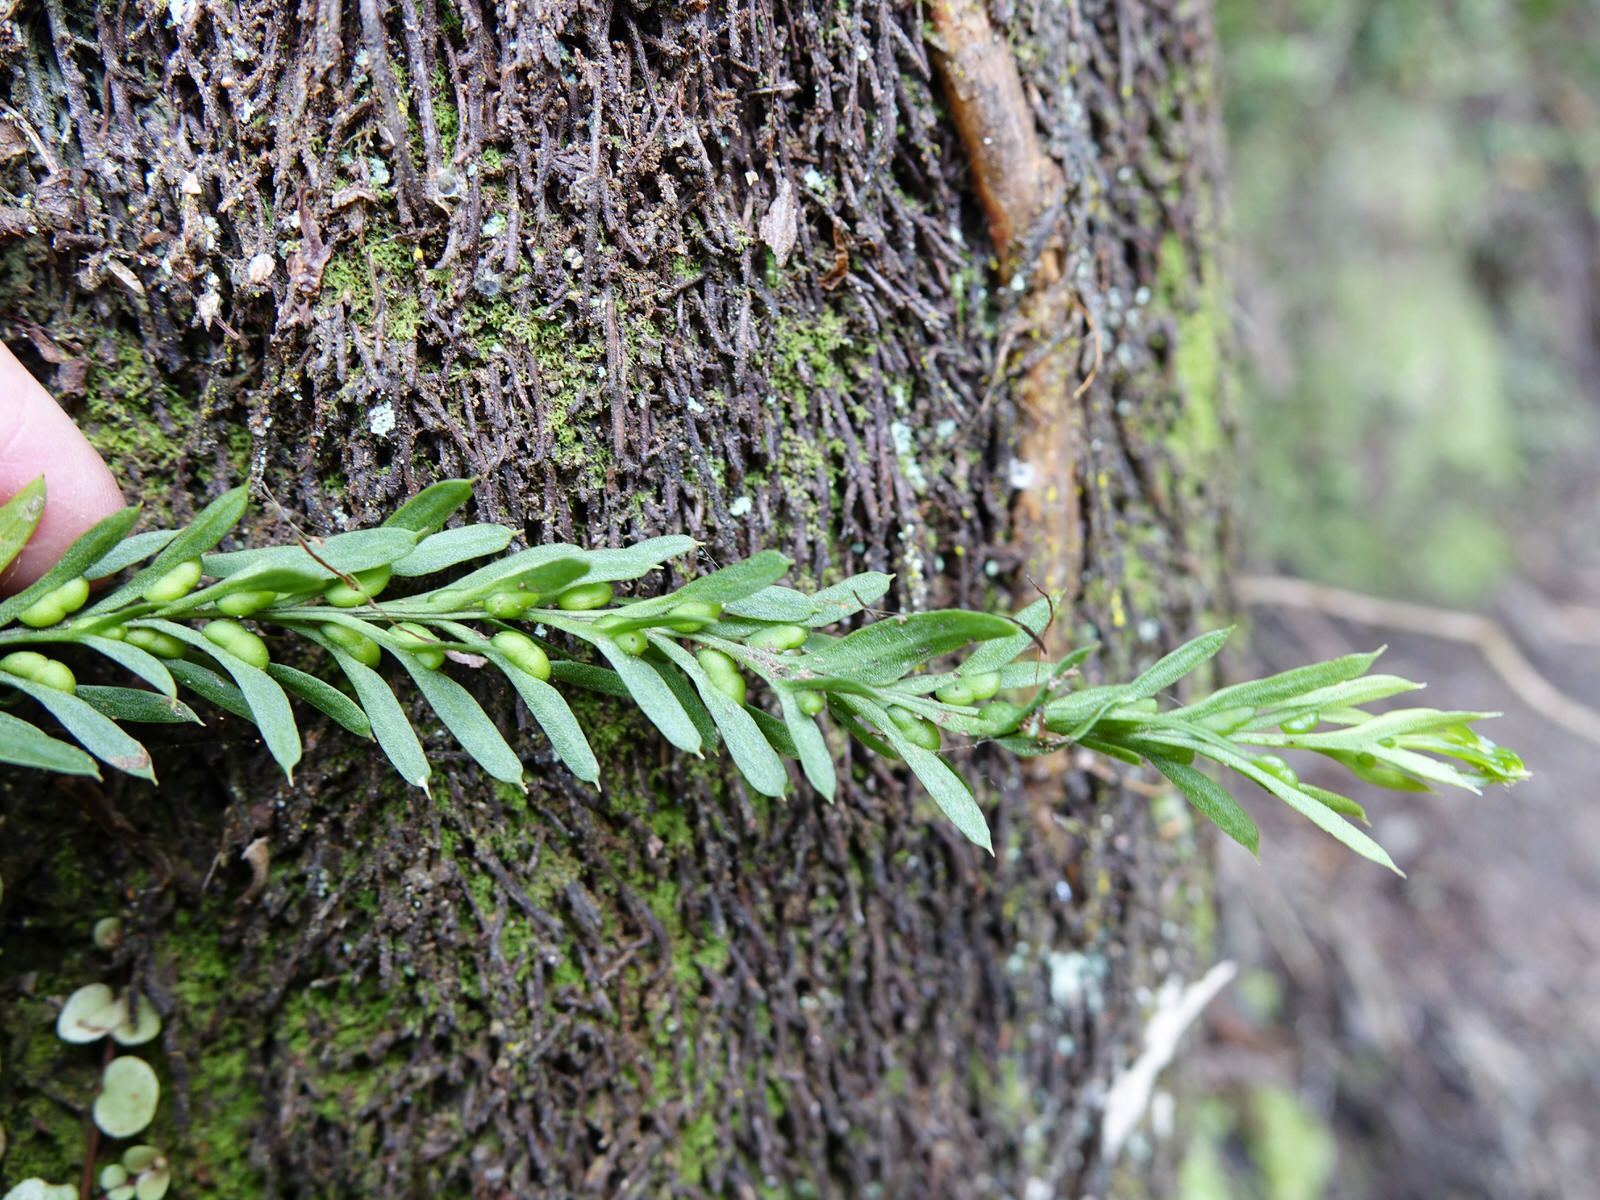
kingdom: Plantae
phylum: Tracheophyta
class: Polypodiopsida
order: Psilotales
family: Psilotaceae
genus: Tmesipteris
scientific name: Tmesipteris elongata
